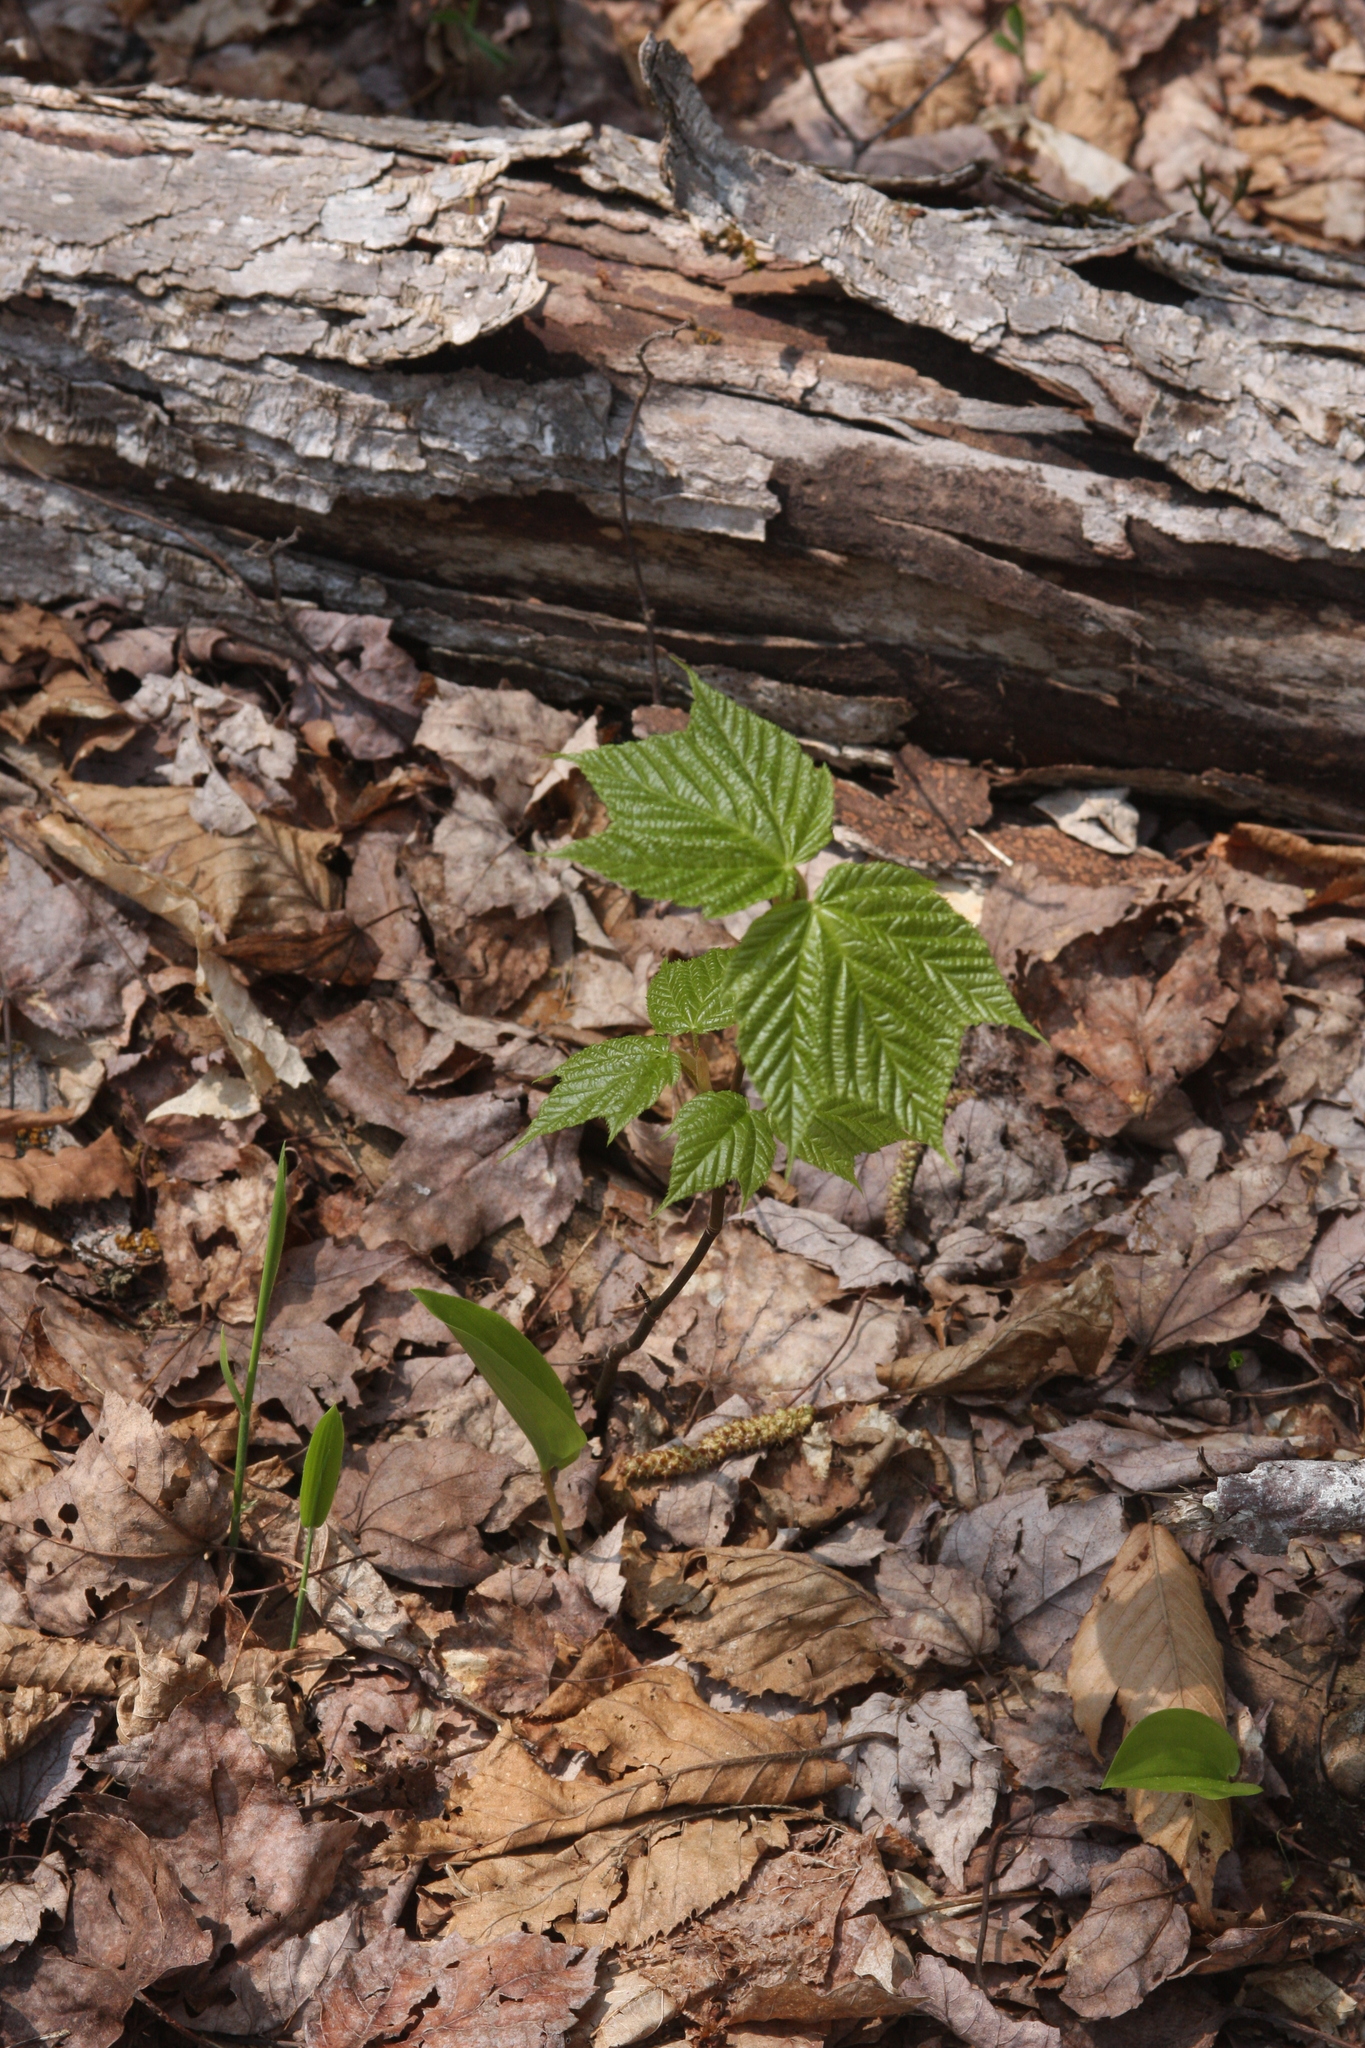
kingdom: Plantae
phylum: Tracheophyta
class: Magnoliopsida
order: Sapindales
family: Sapindaceae
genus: Acer
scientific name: Acer pensylvanicum
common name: Moosewood
